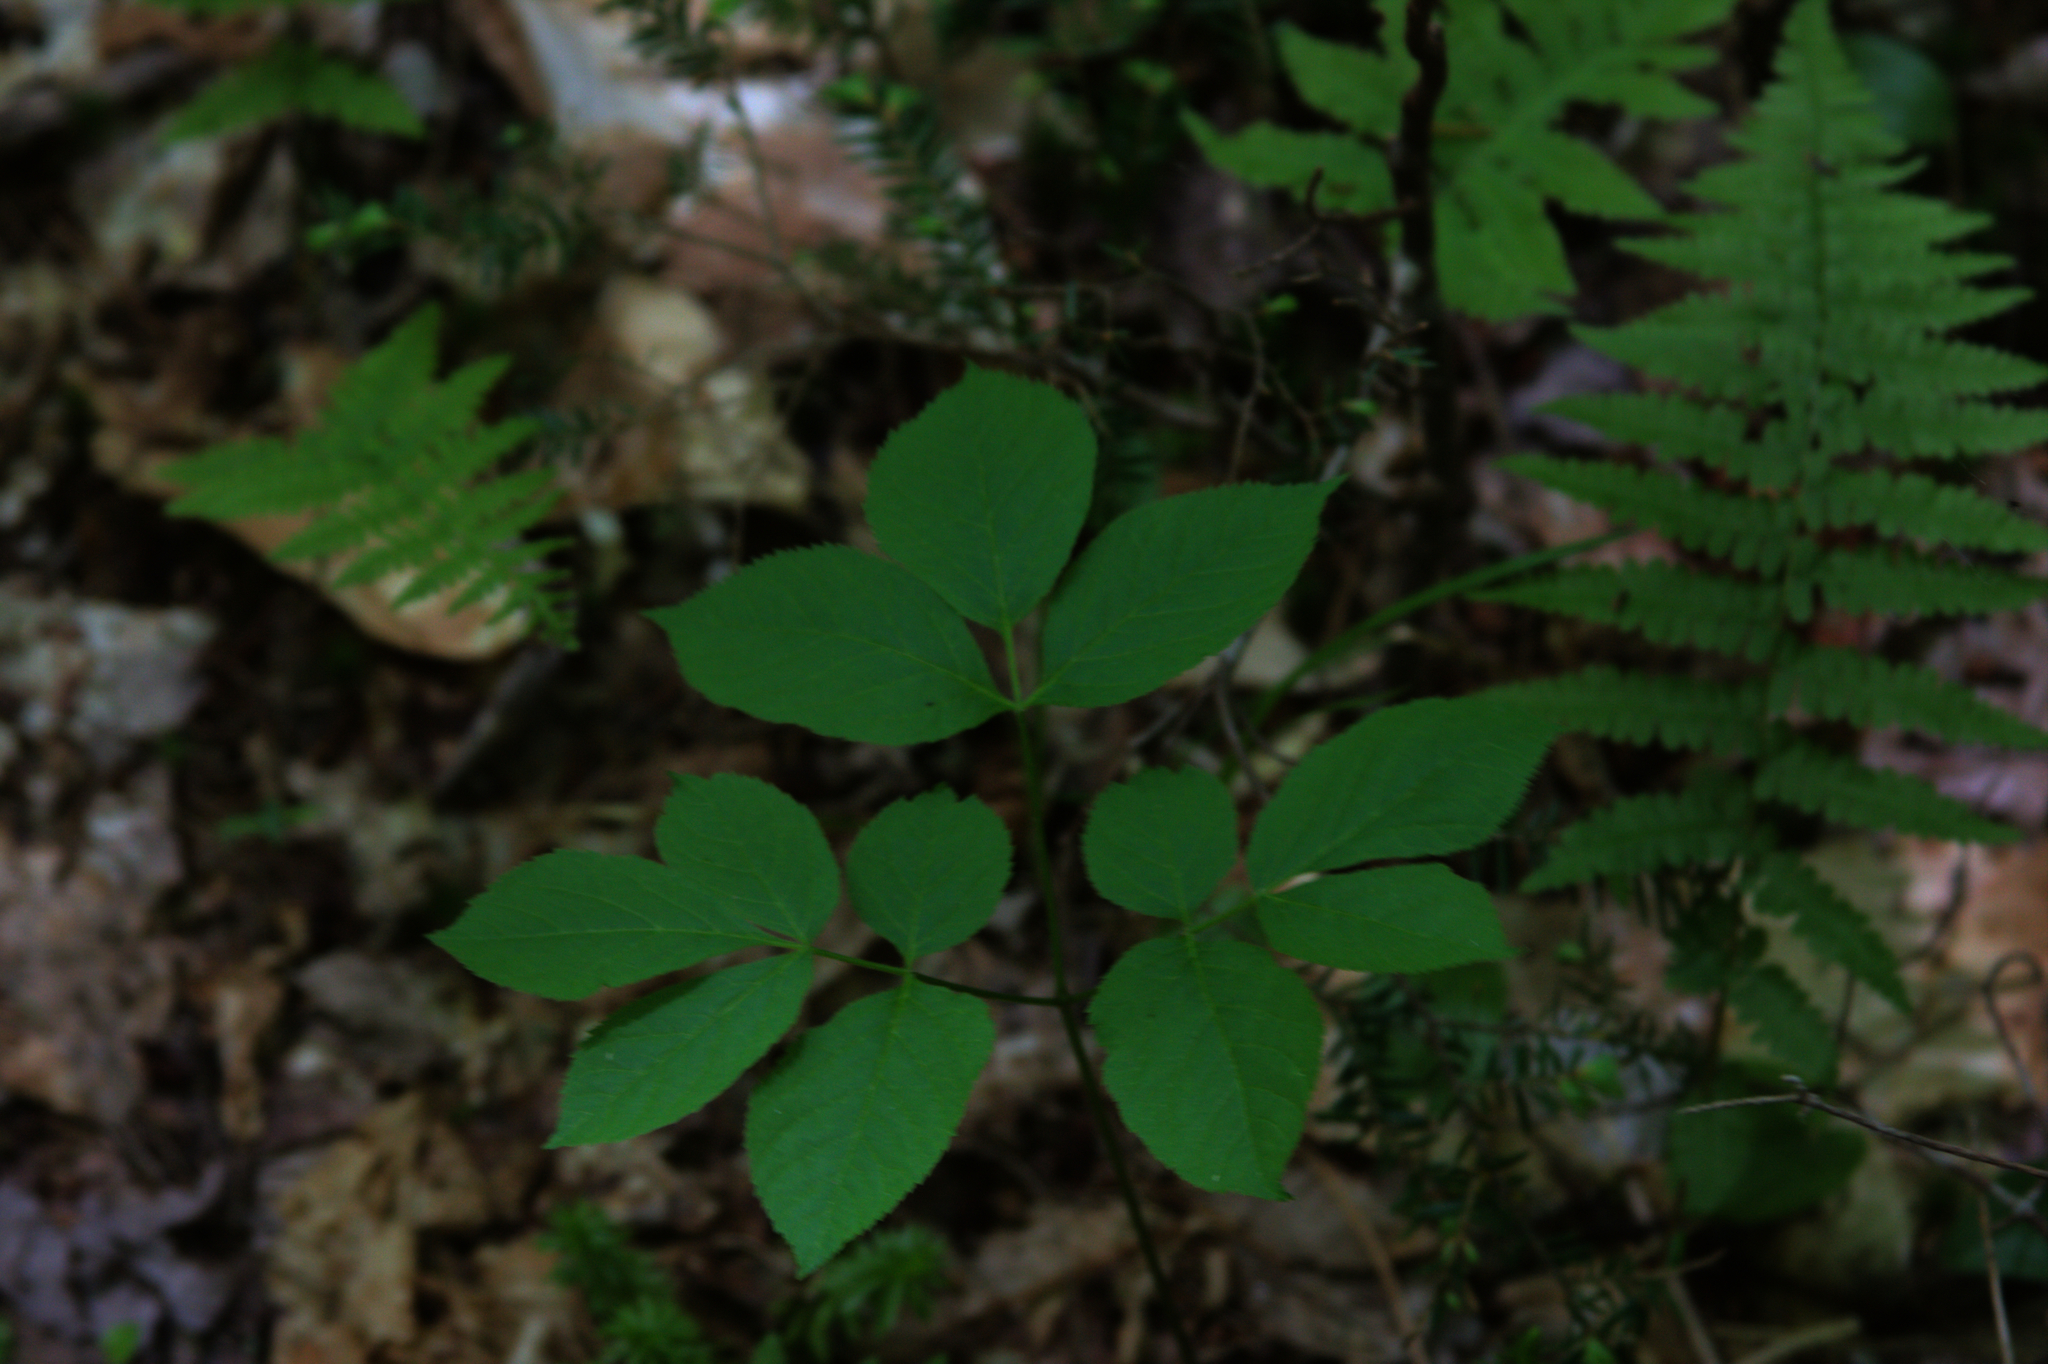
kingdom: Plantae
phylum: Tracheophyta
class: Magnoliopsida
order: Apiales
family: Araliaceae
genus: Aralia
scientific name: Aralia nudicaulis
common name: Wild sarsaparilla
